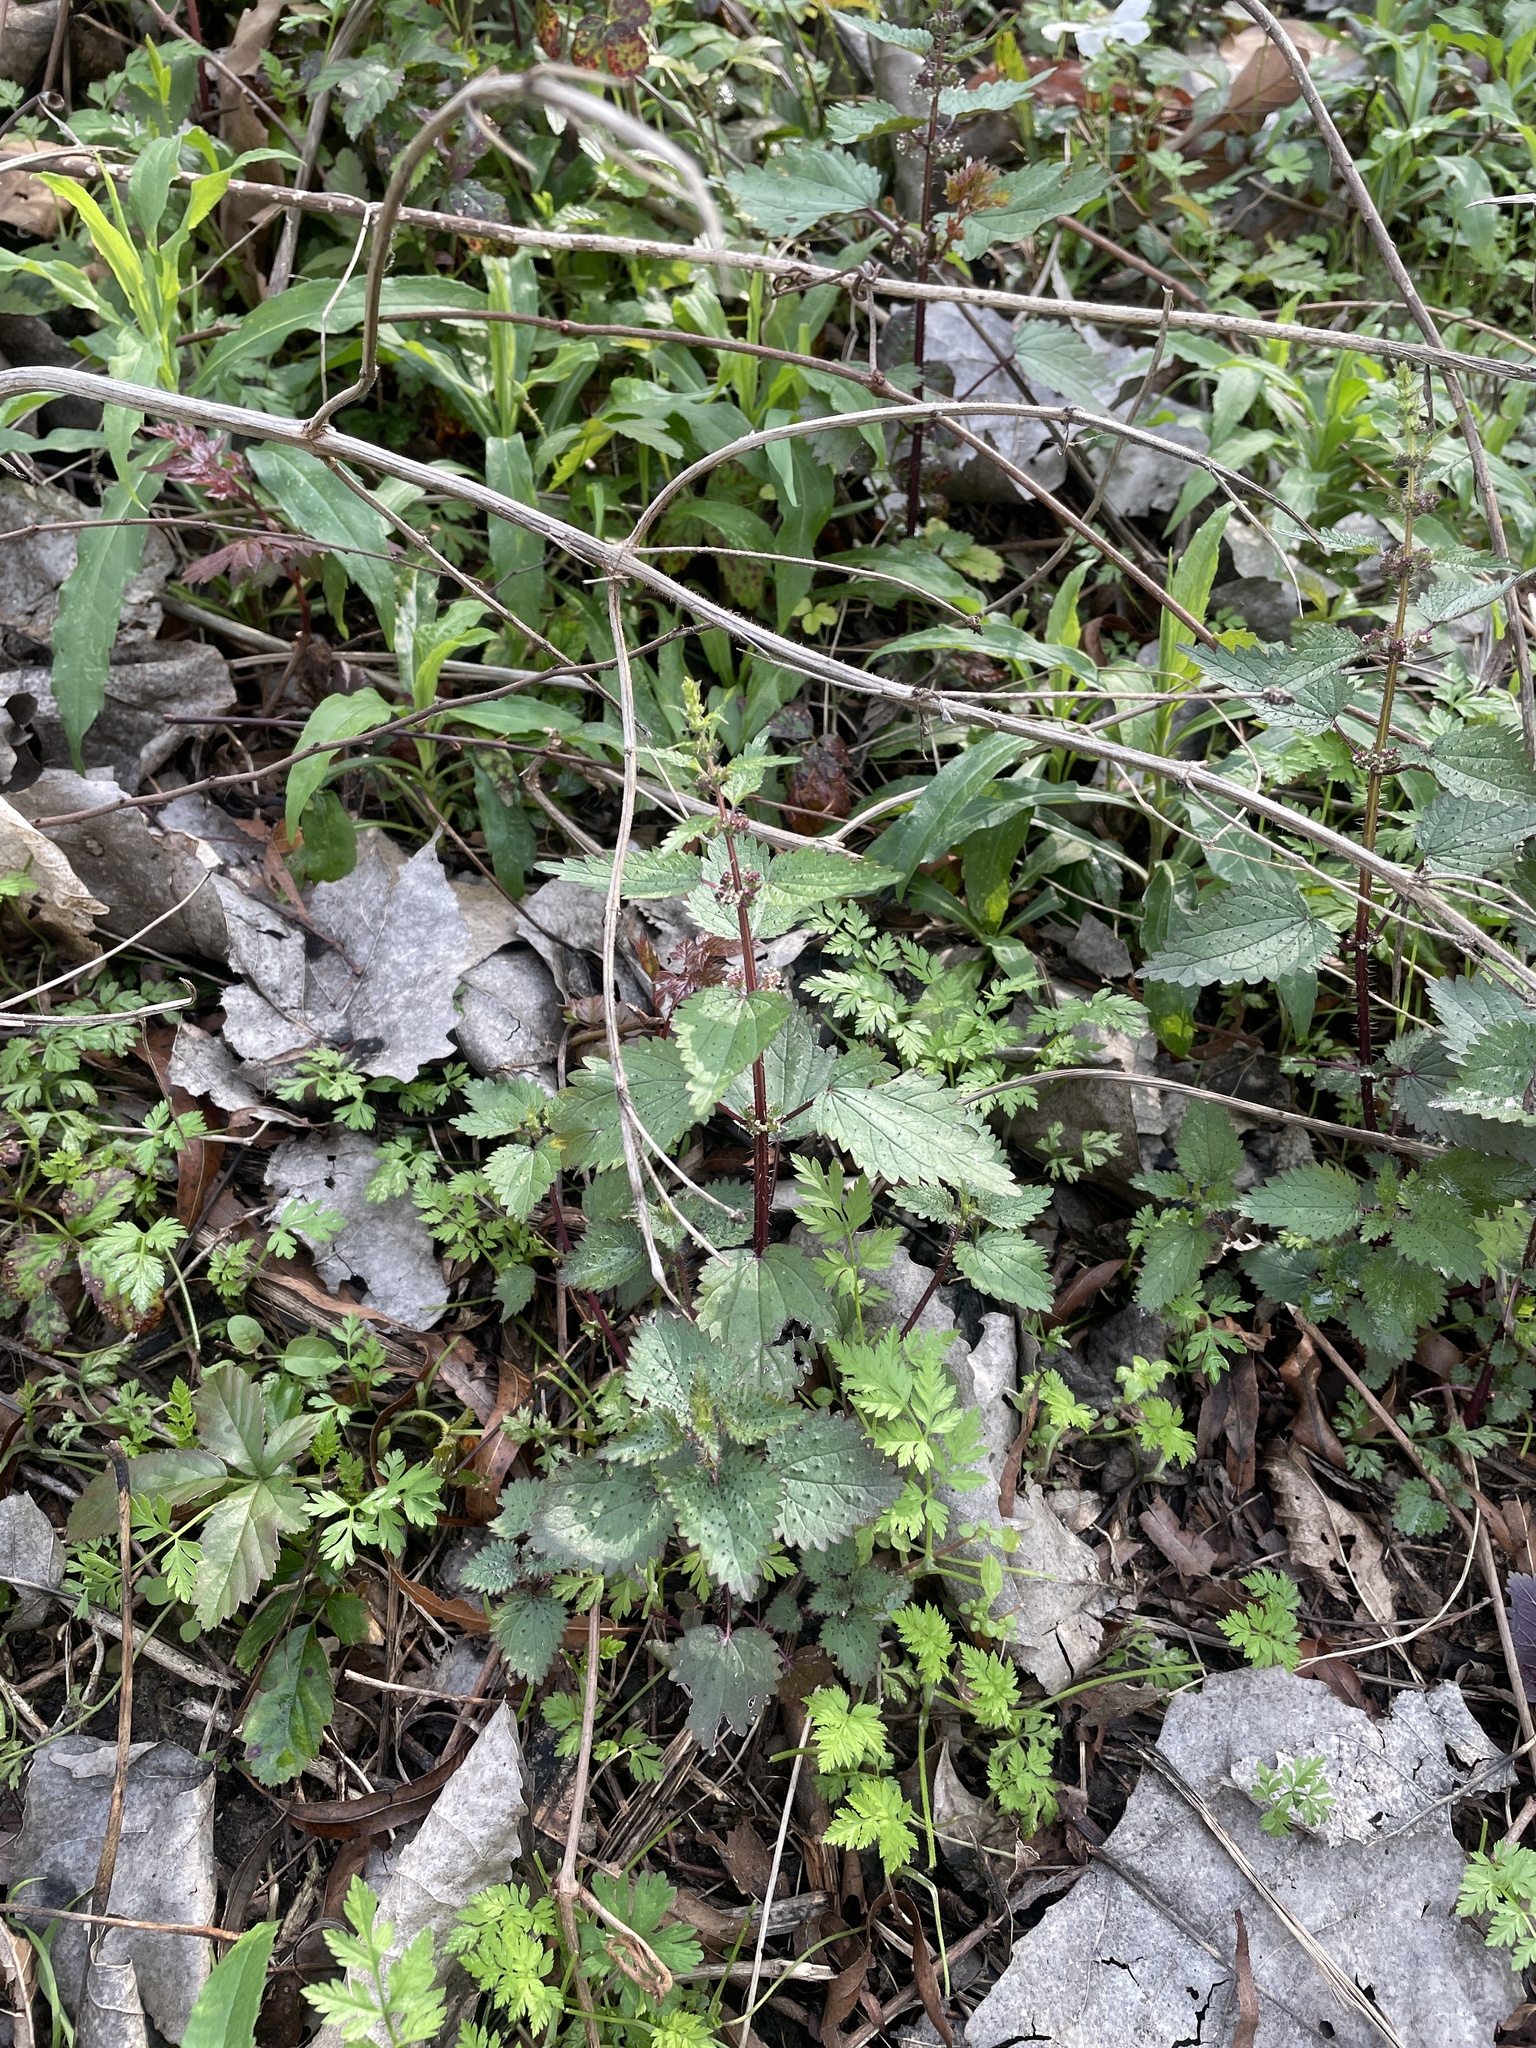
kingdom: Plantae
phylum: Tracheophyta
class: Magnoliopsida
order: Rosales
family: Urticaceae
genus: Urtica
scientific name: Urtica chamaedryoides
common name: Heart-leaf nettle
